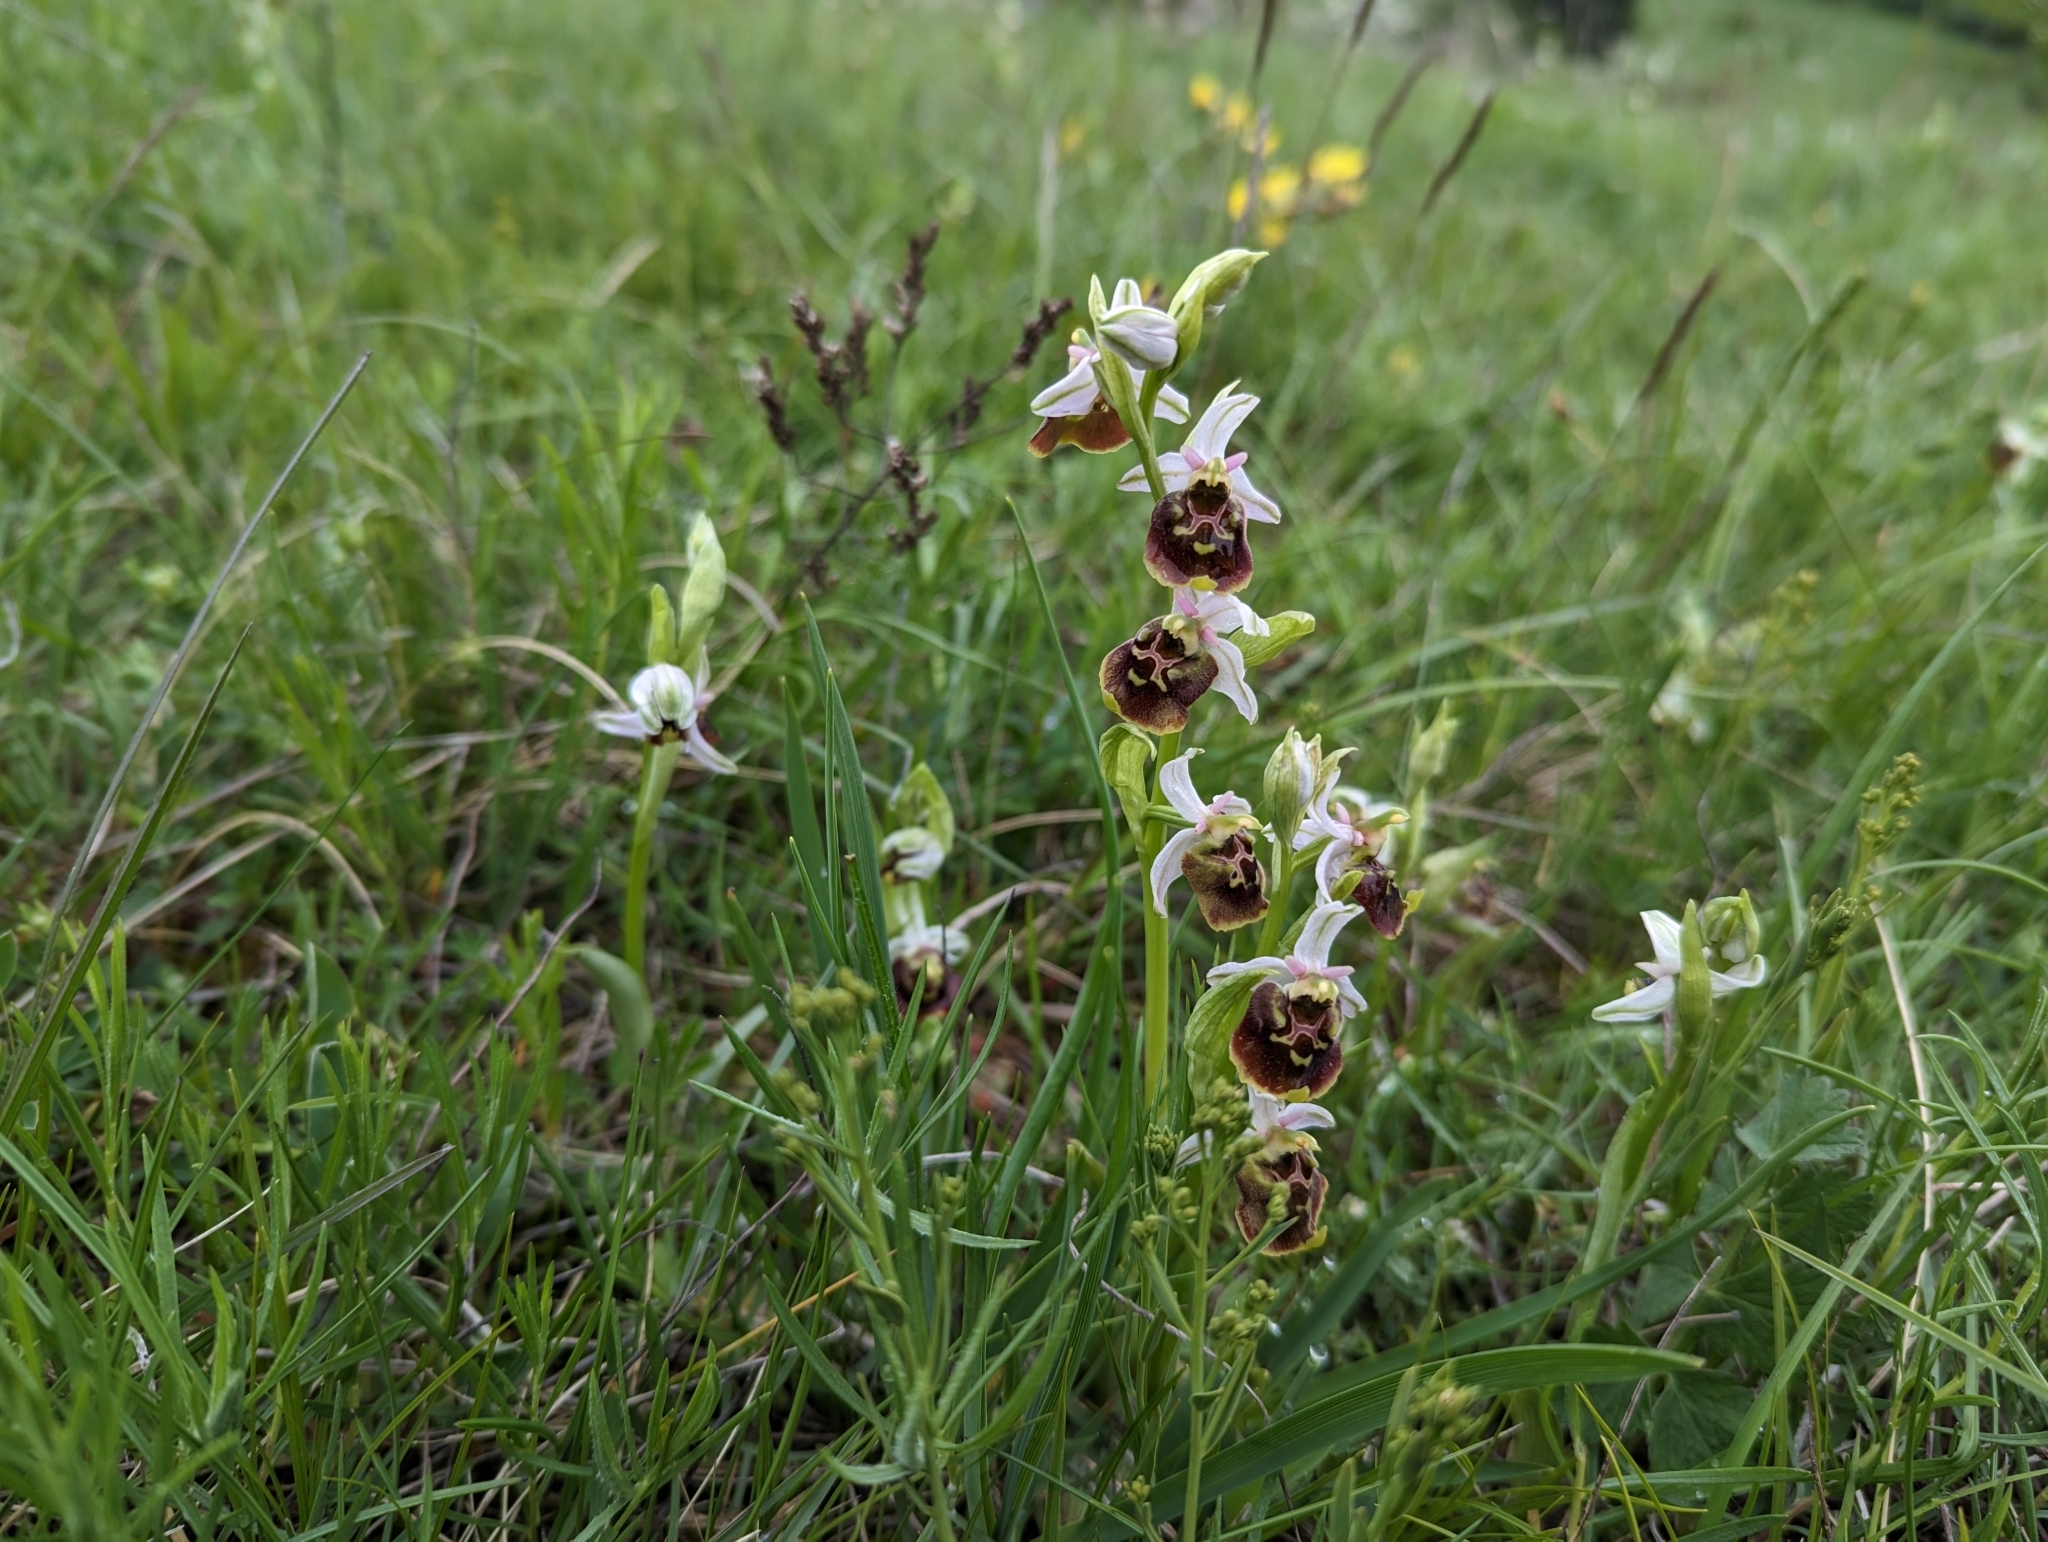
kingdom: Plantae
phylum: Tracheophyta
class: Liliopsida
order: Asparagales
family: Orchidaceae
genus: Ophrys
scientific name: Ophrys holosericea
